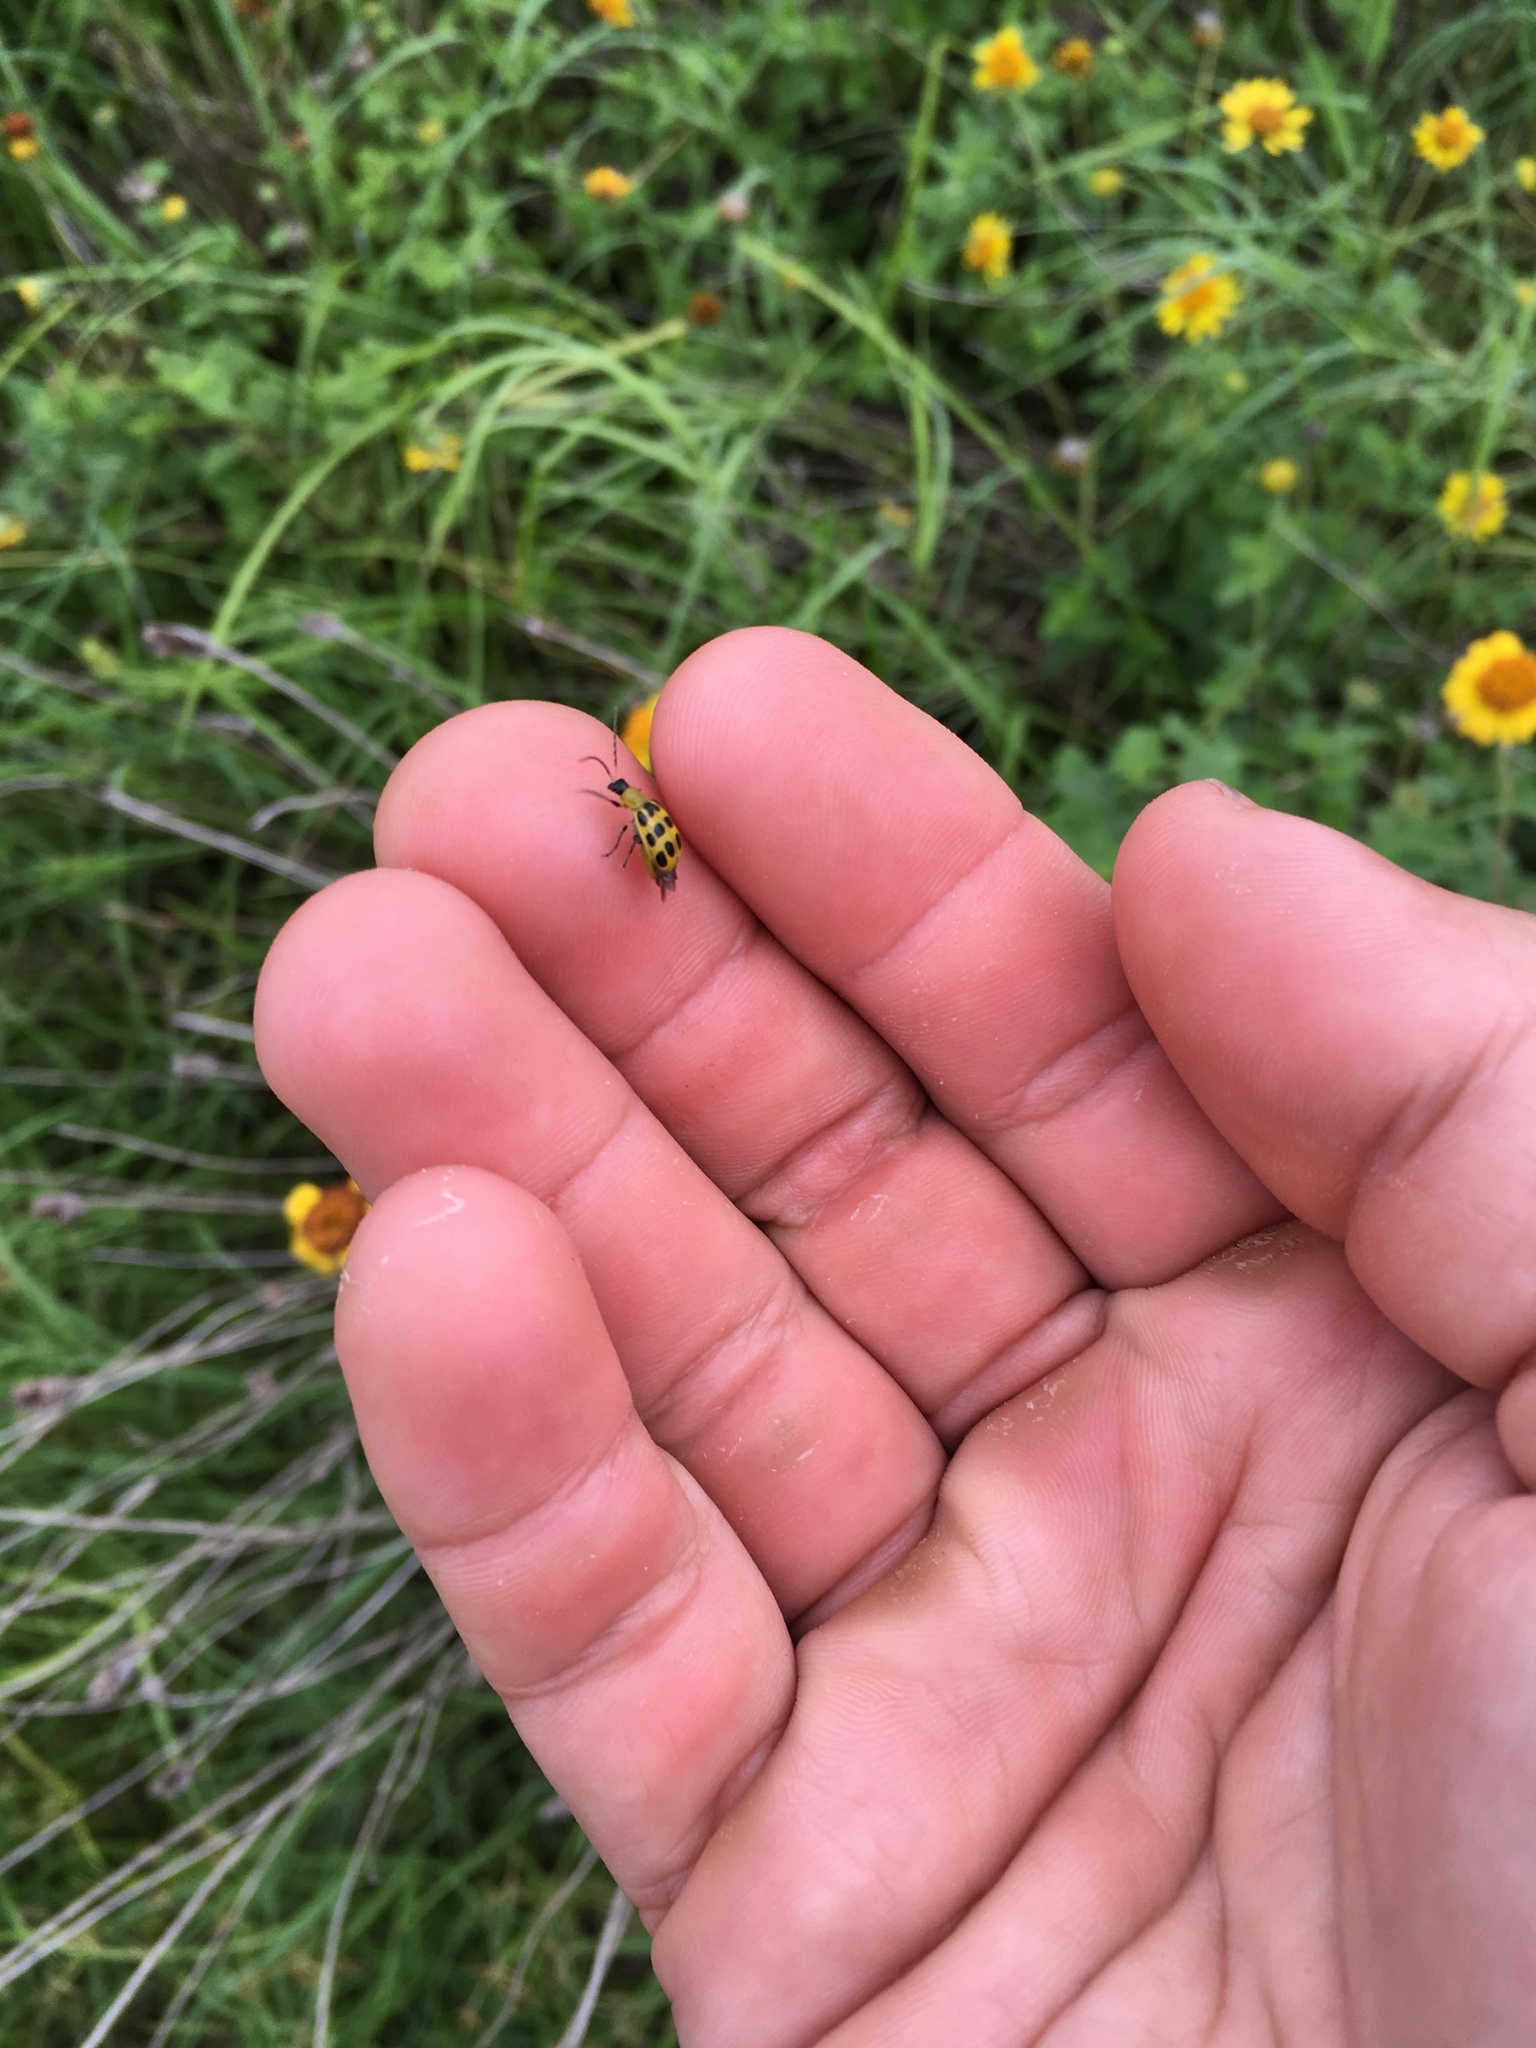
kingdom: Animalia
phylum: Arthropoda
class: Insecta
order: Coleoptera
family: Chrysomelidae
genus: Diabrotica
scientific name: Diabrotica undecimpunctata
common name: Spotted cucumber beetle
